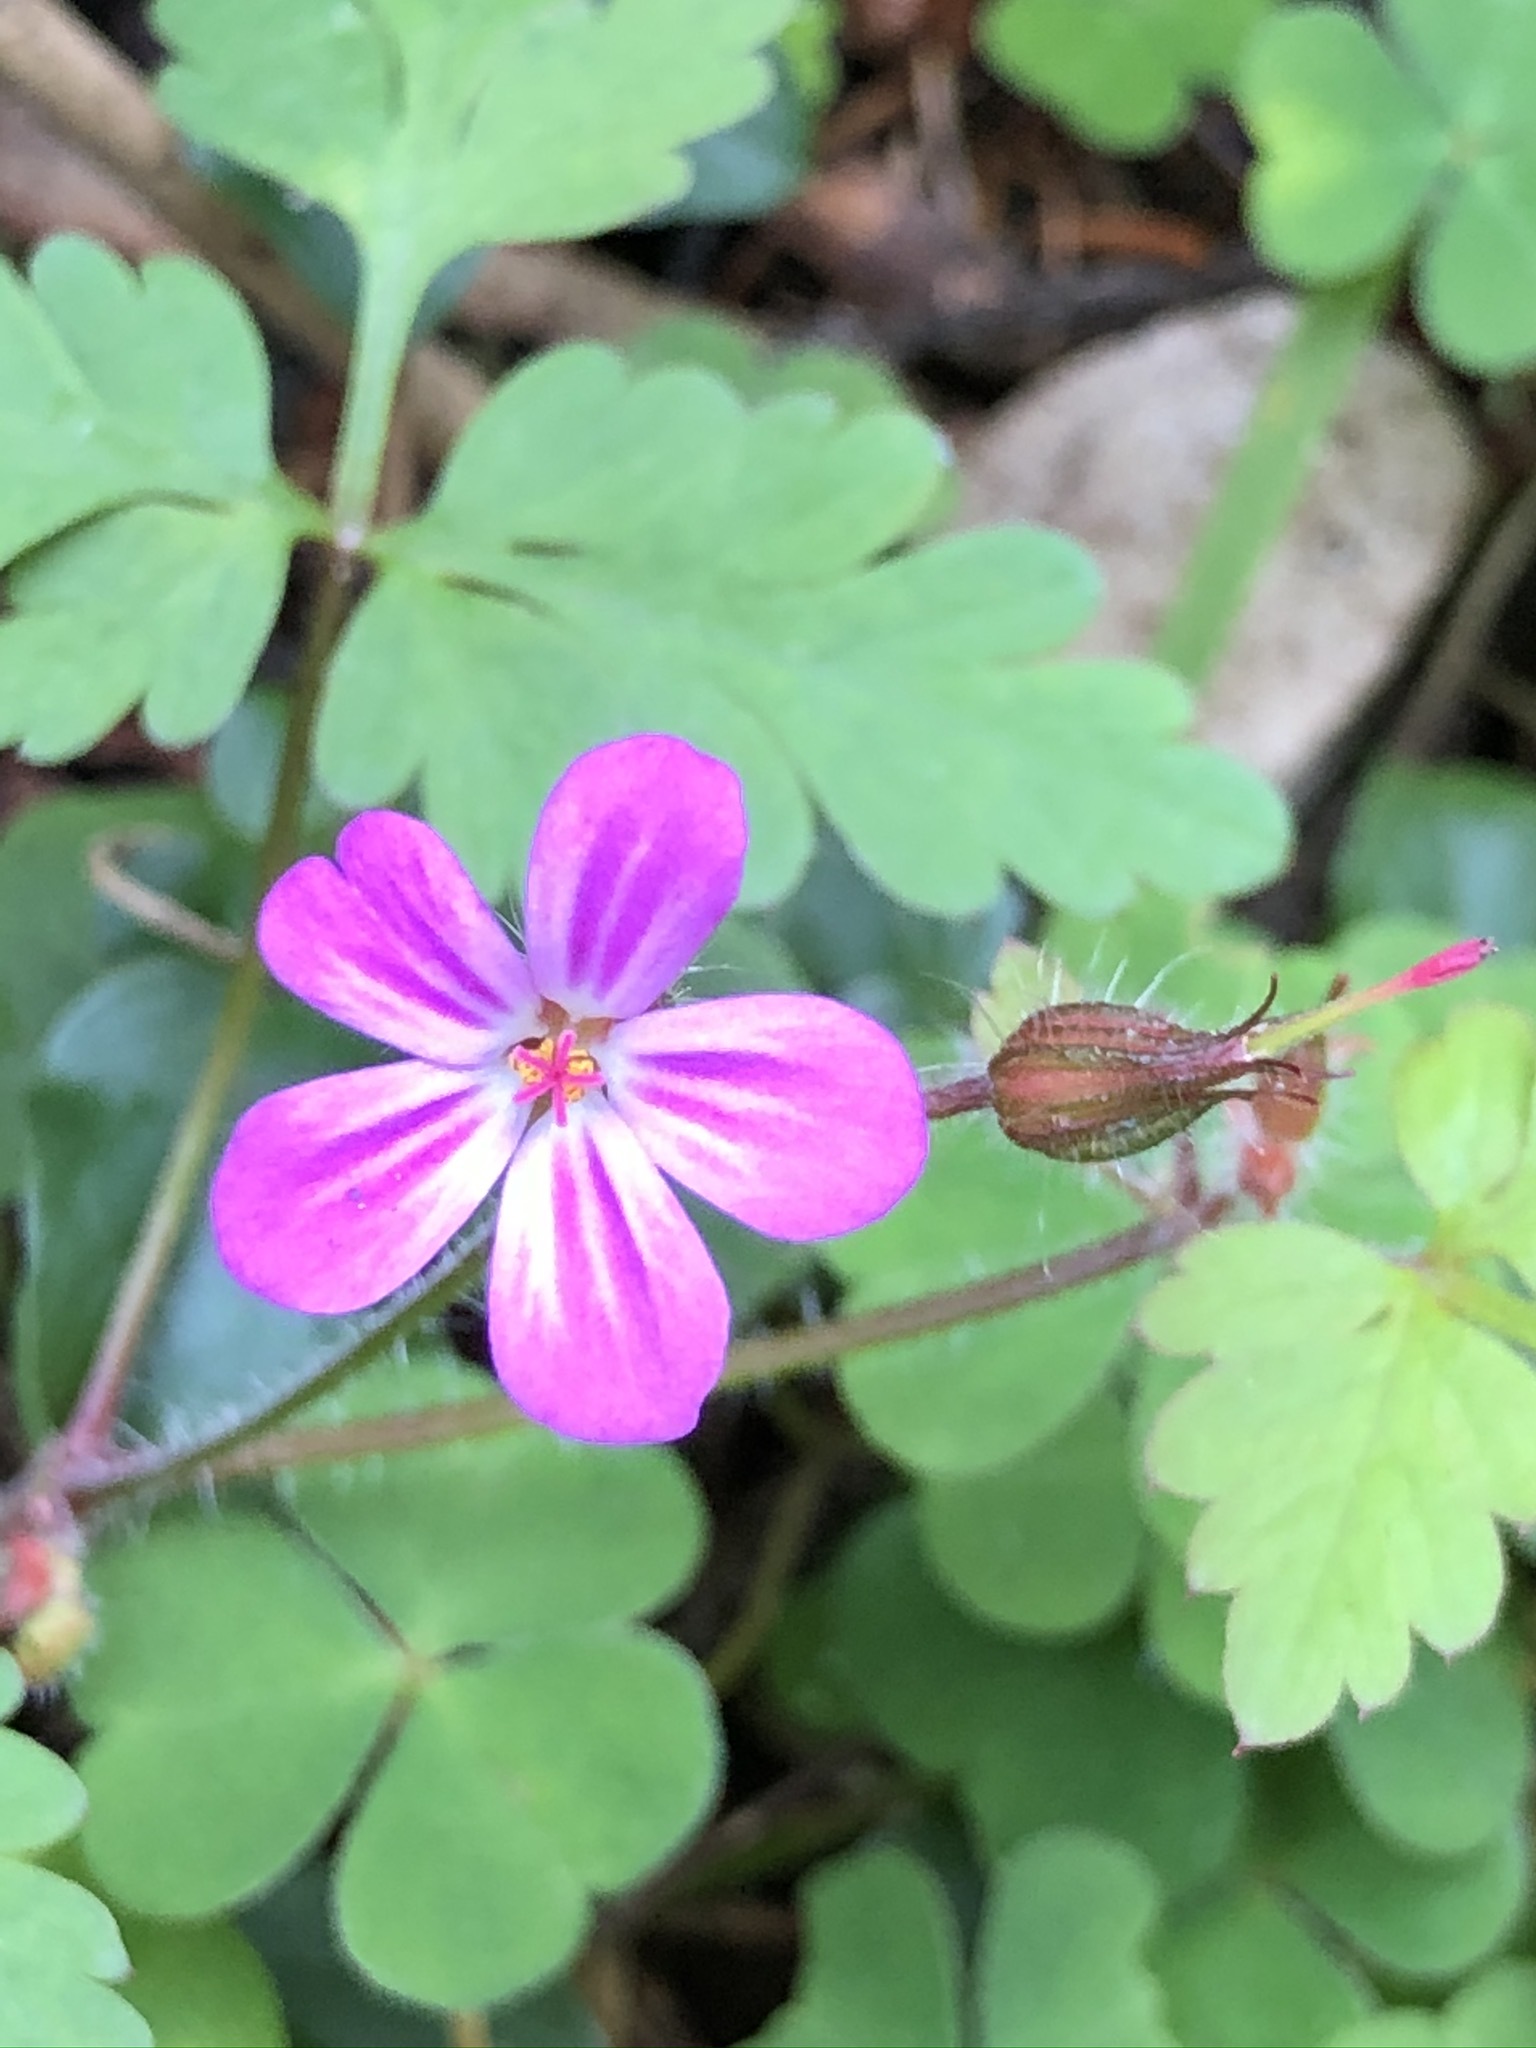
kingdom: Plantae
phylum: Tracheophyta
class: Magnoliopsida
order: Geraniales
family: Geraniaceae
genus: Geranium
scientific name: Geranium robertianum
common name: Herb-robert
